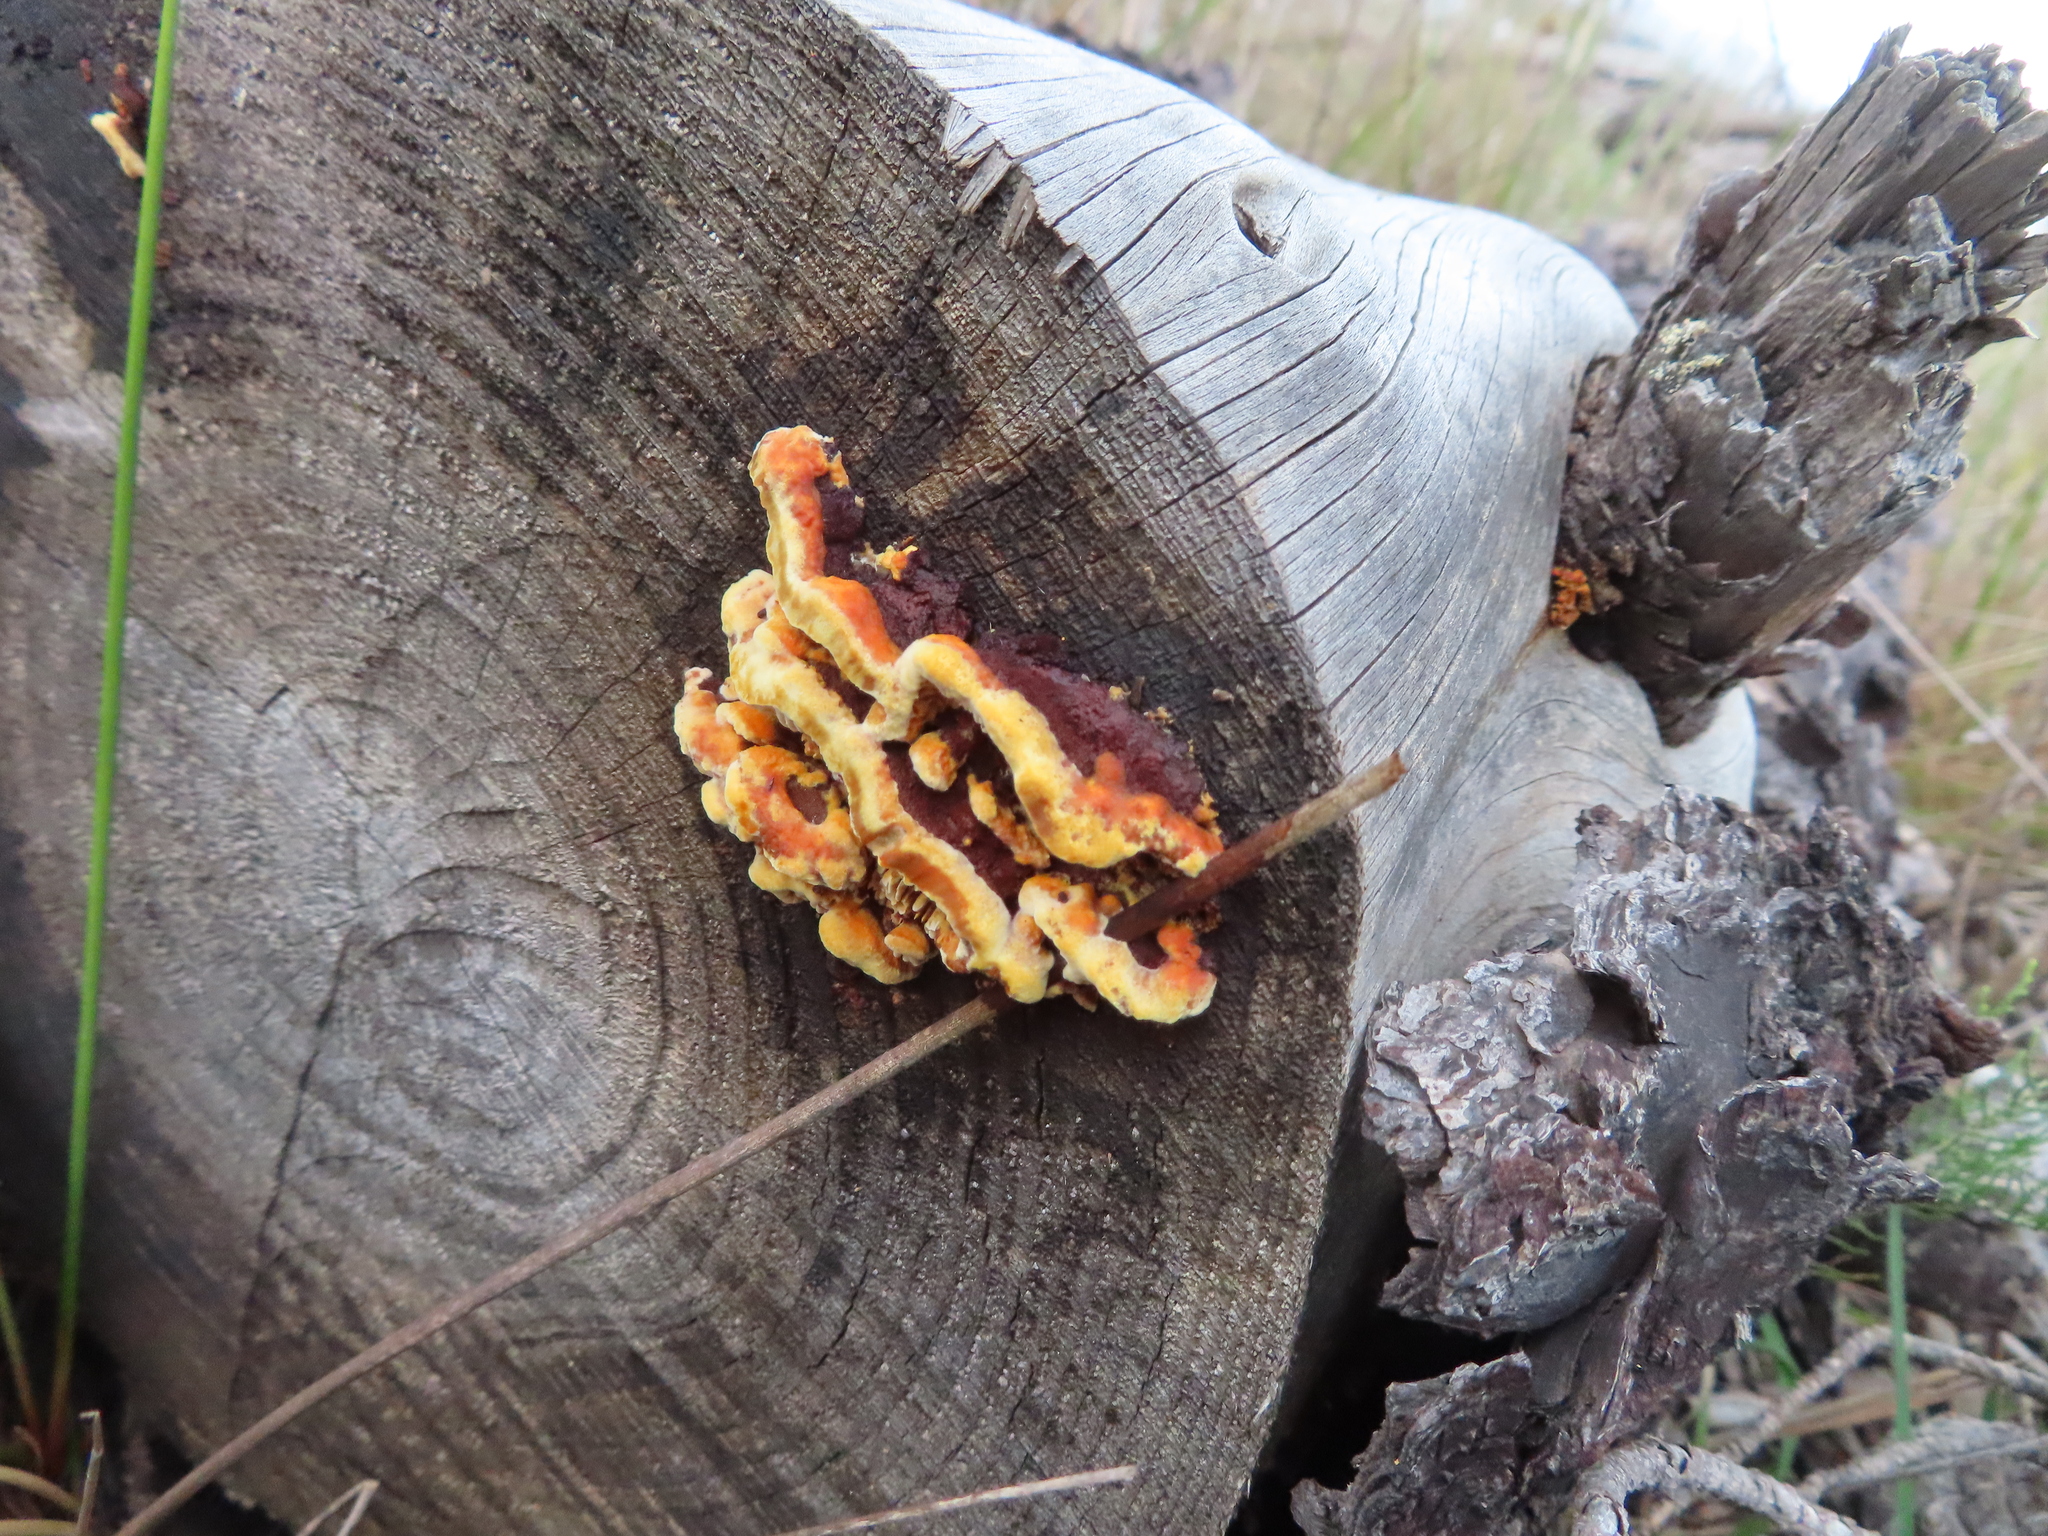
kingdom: Fungi
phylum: Basidiomycota
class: Agaricomycetes
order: Russulales
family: Stereaceae
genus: Stereum
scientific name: Stereum versicolor
